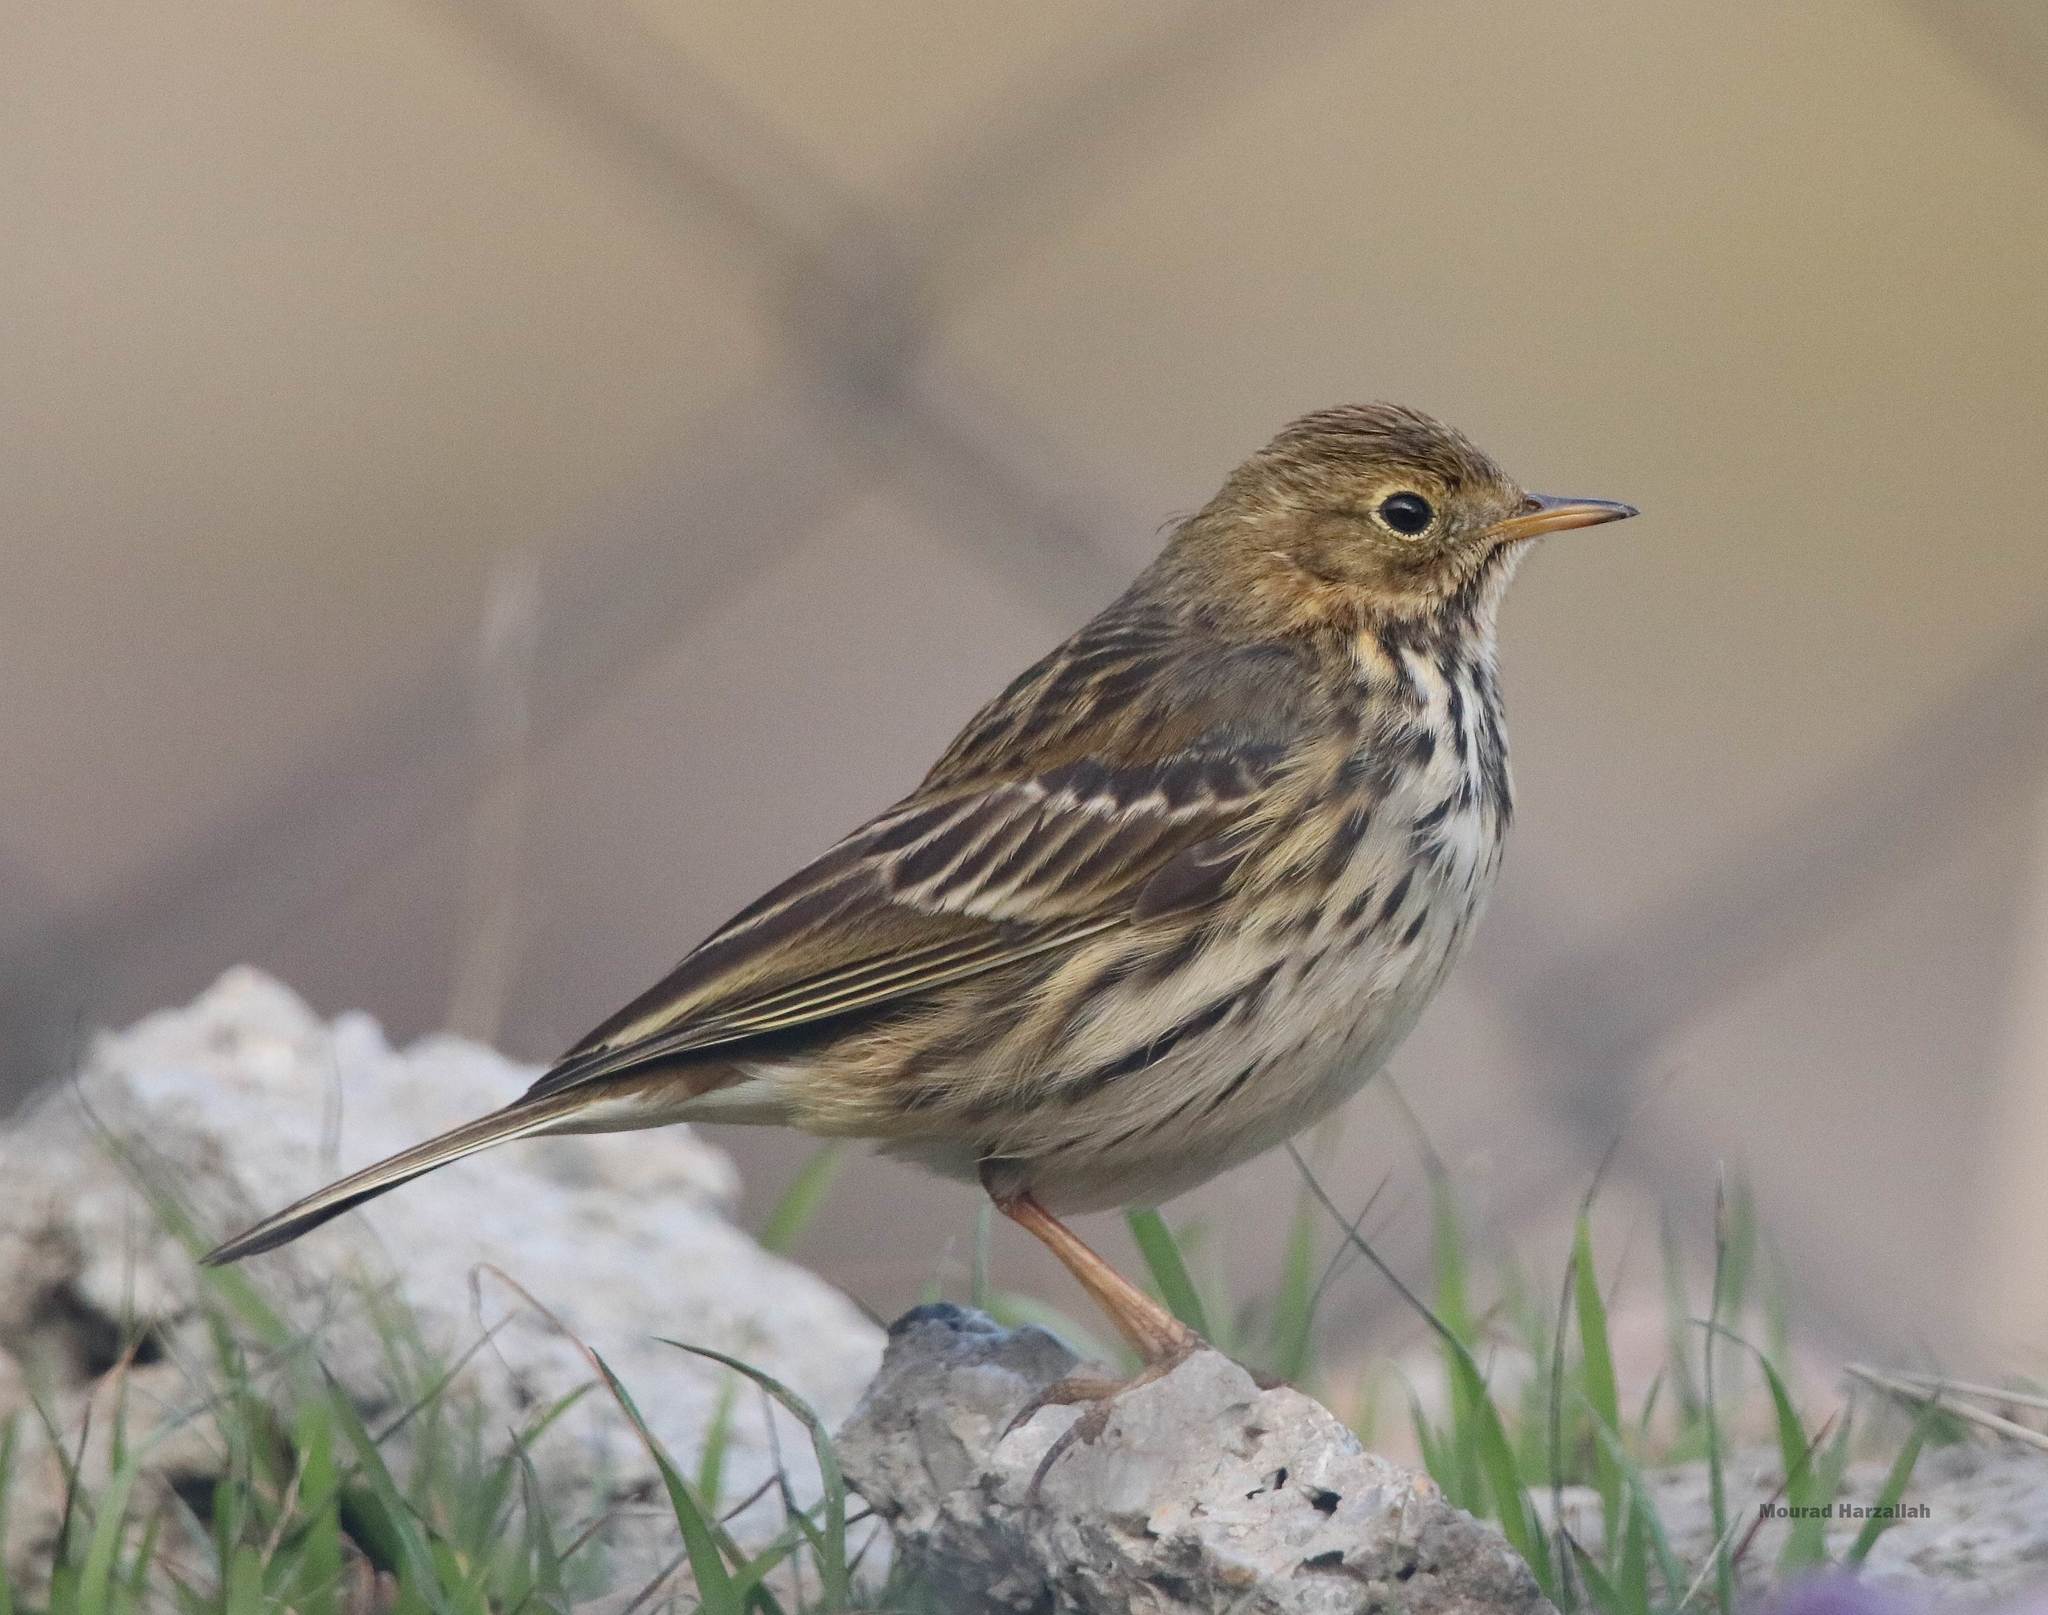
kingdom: Animalia
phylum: Chordata
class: Aves
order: Passeriformes
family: Motacillidae
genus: Anthus
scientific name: Anthus pratensis
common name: Meadow pipit
